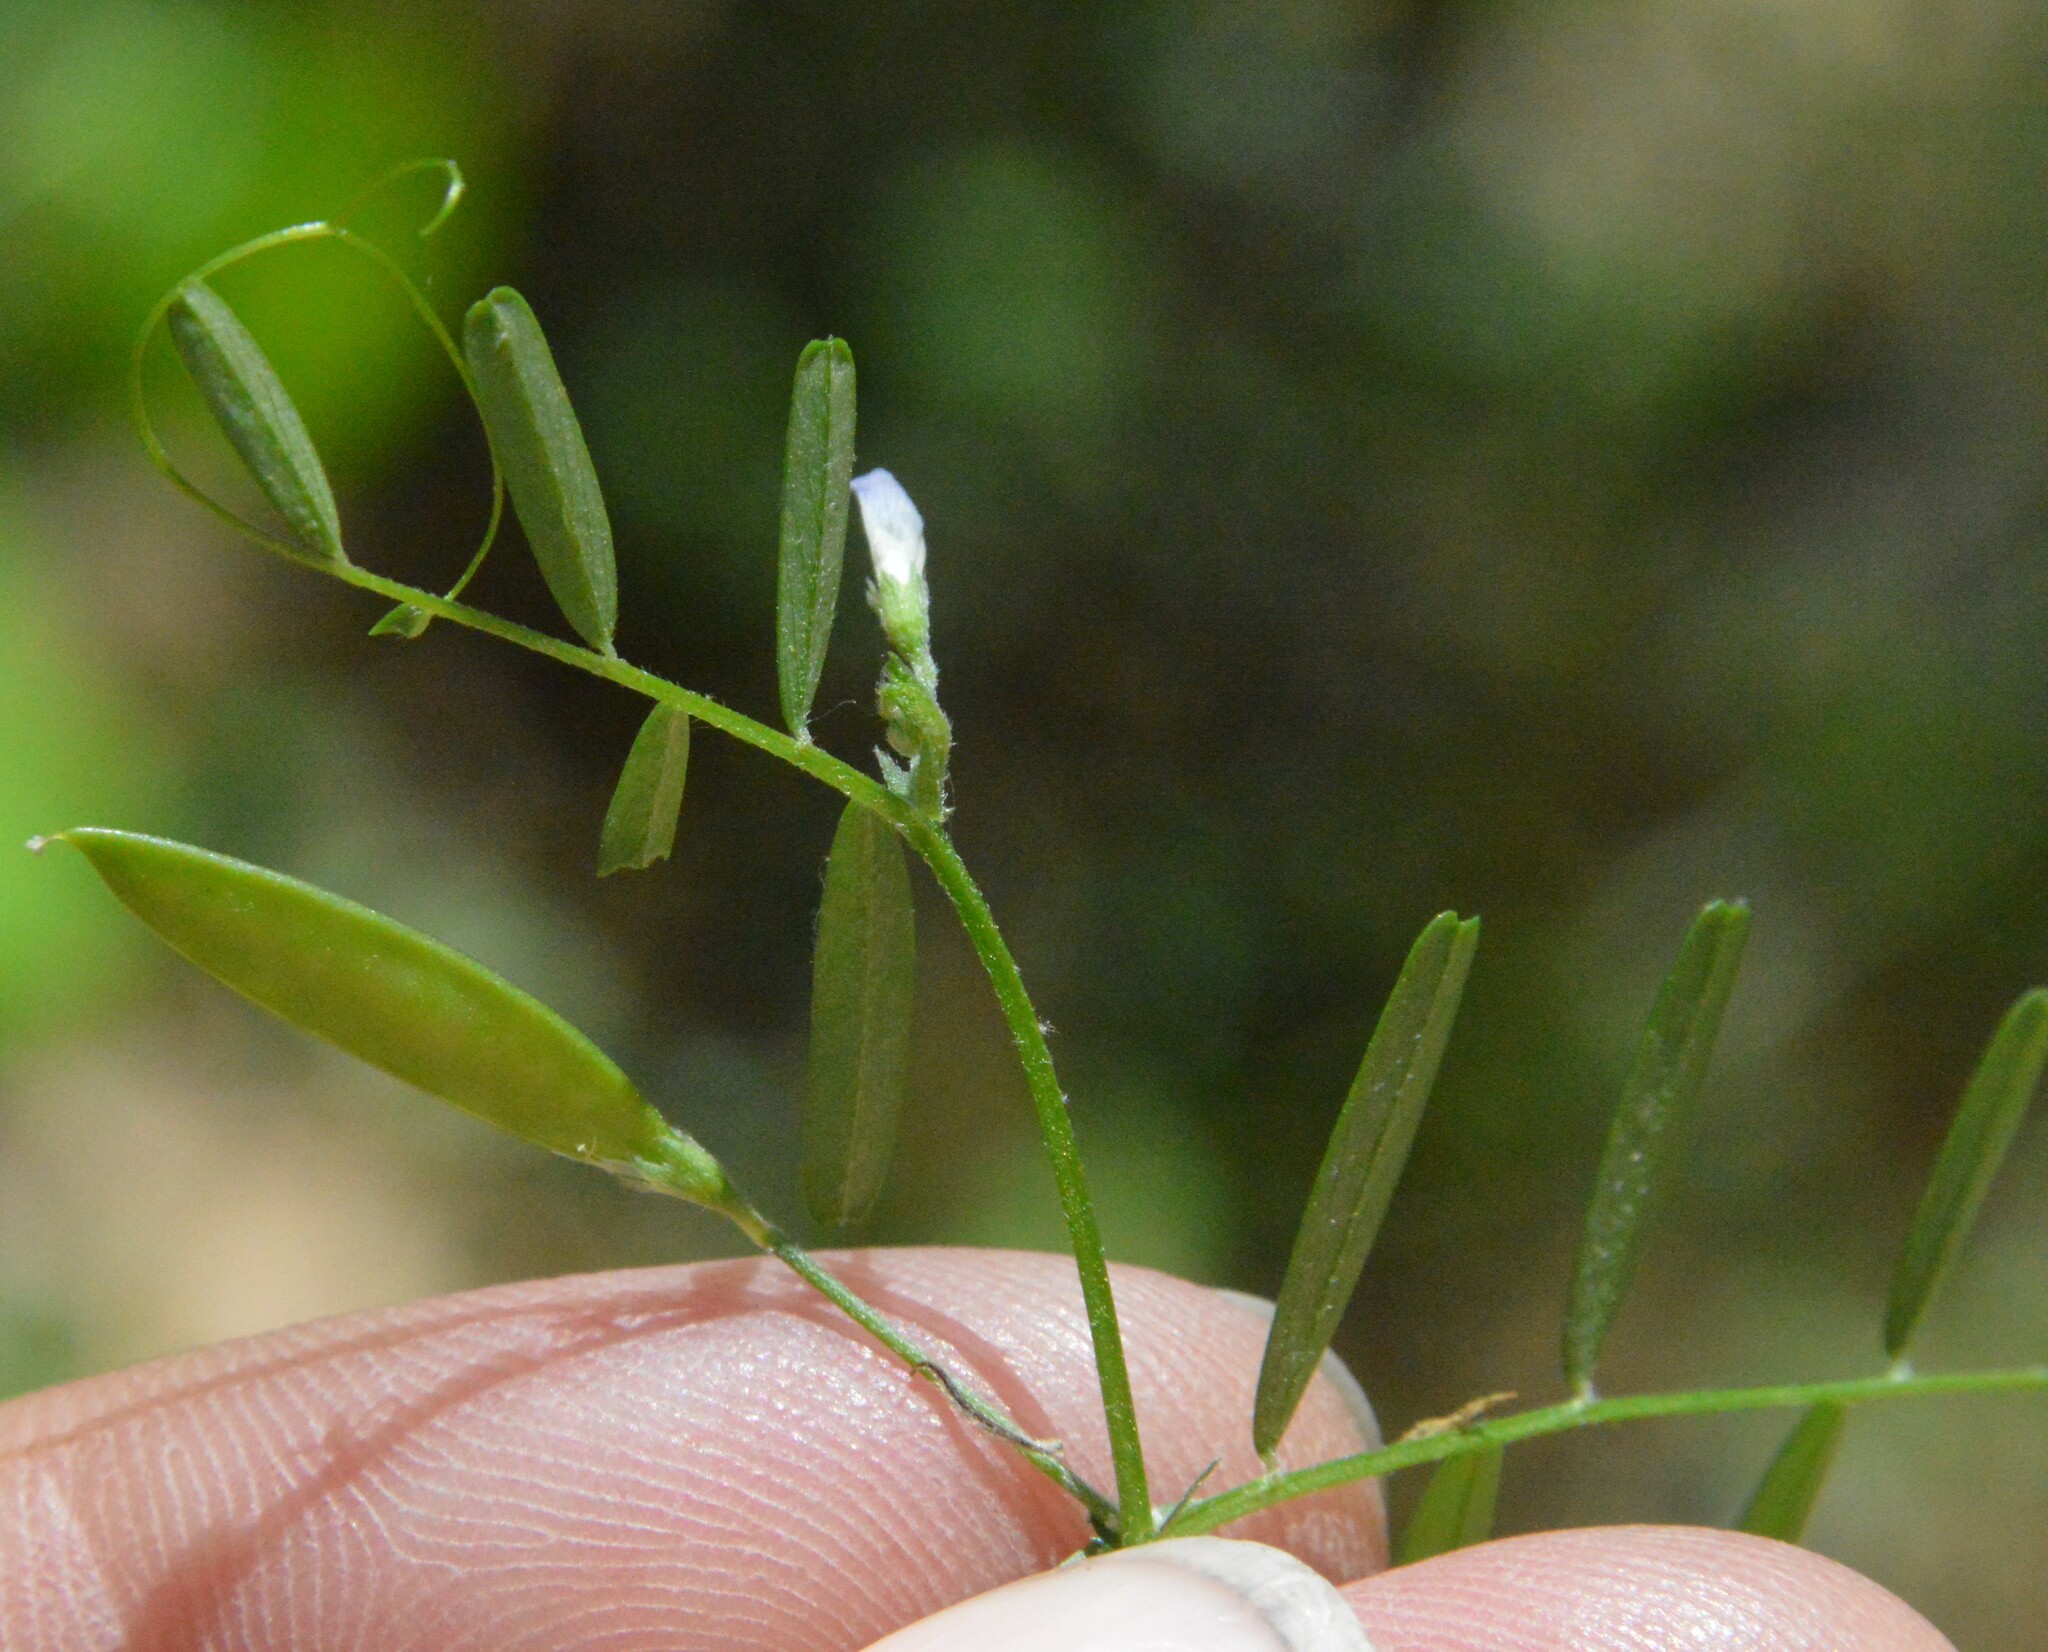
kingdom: Plantae
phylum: Tracheophyta
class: Magnoliopsida
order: Fabales
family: Fabaceae
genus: Vicia
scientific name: Vicia minutiflora
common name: Pygmy-flower vetch
